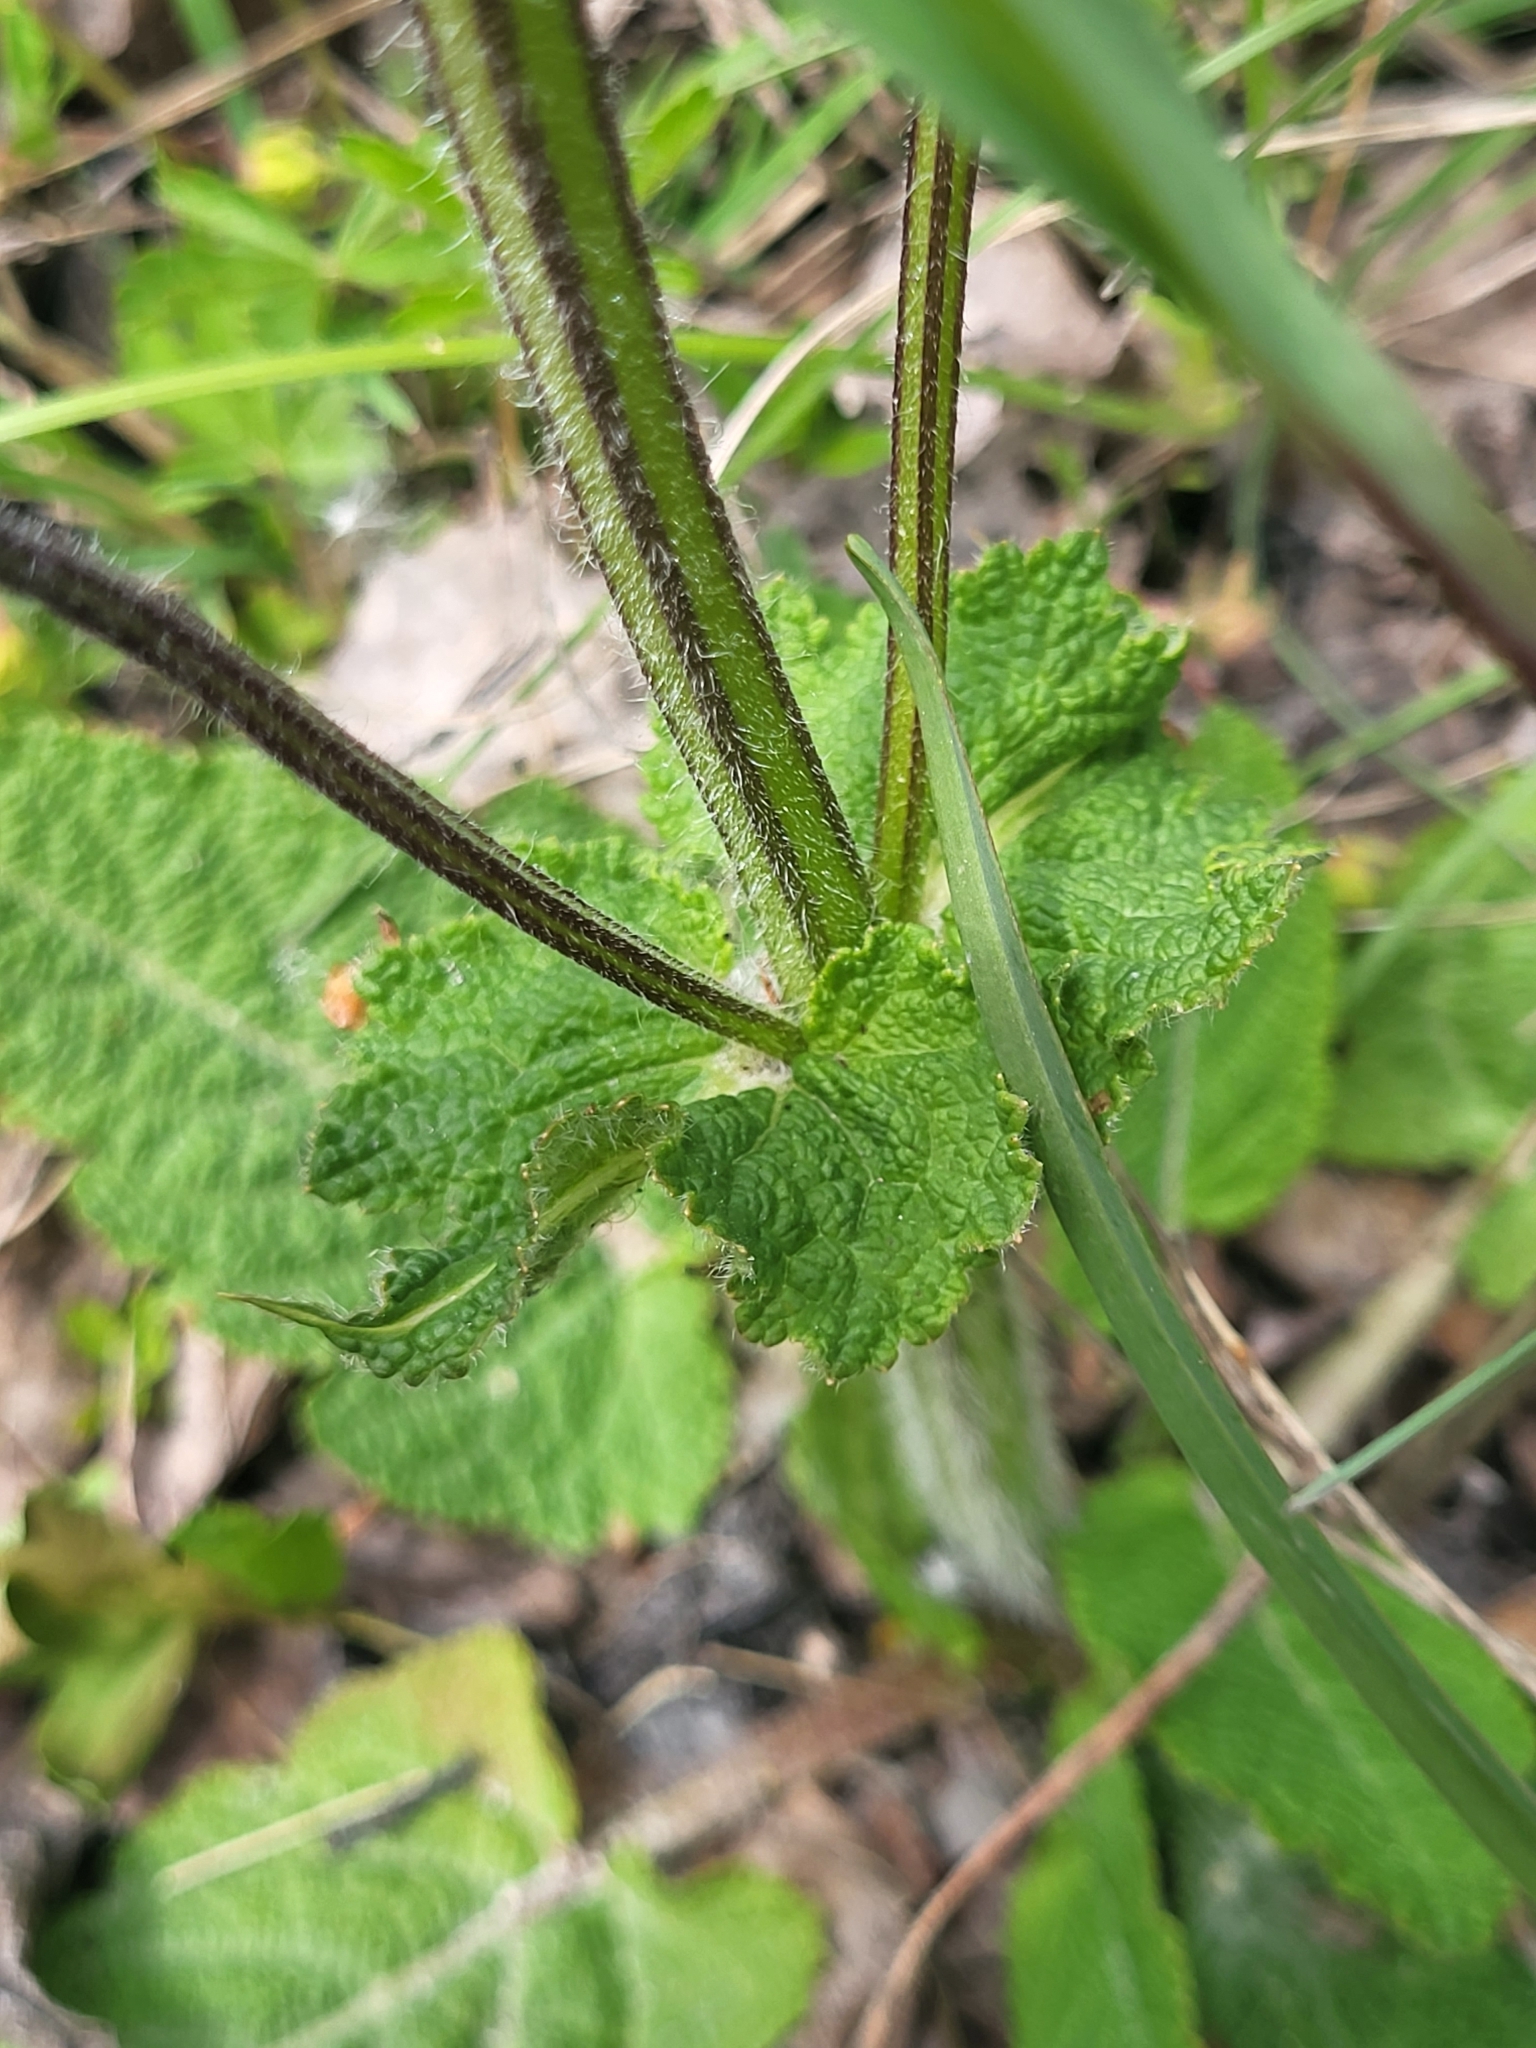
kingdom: Plantae
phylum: Tracheophyta
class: Magnoliopsida
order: Lamiales
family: Lamiaceae
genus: Salvia
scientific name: Salvia pratensis
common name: Meadow sage
